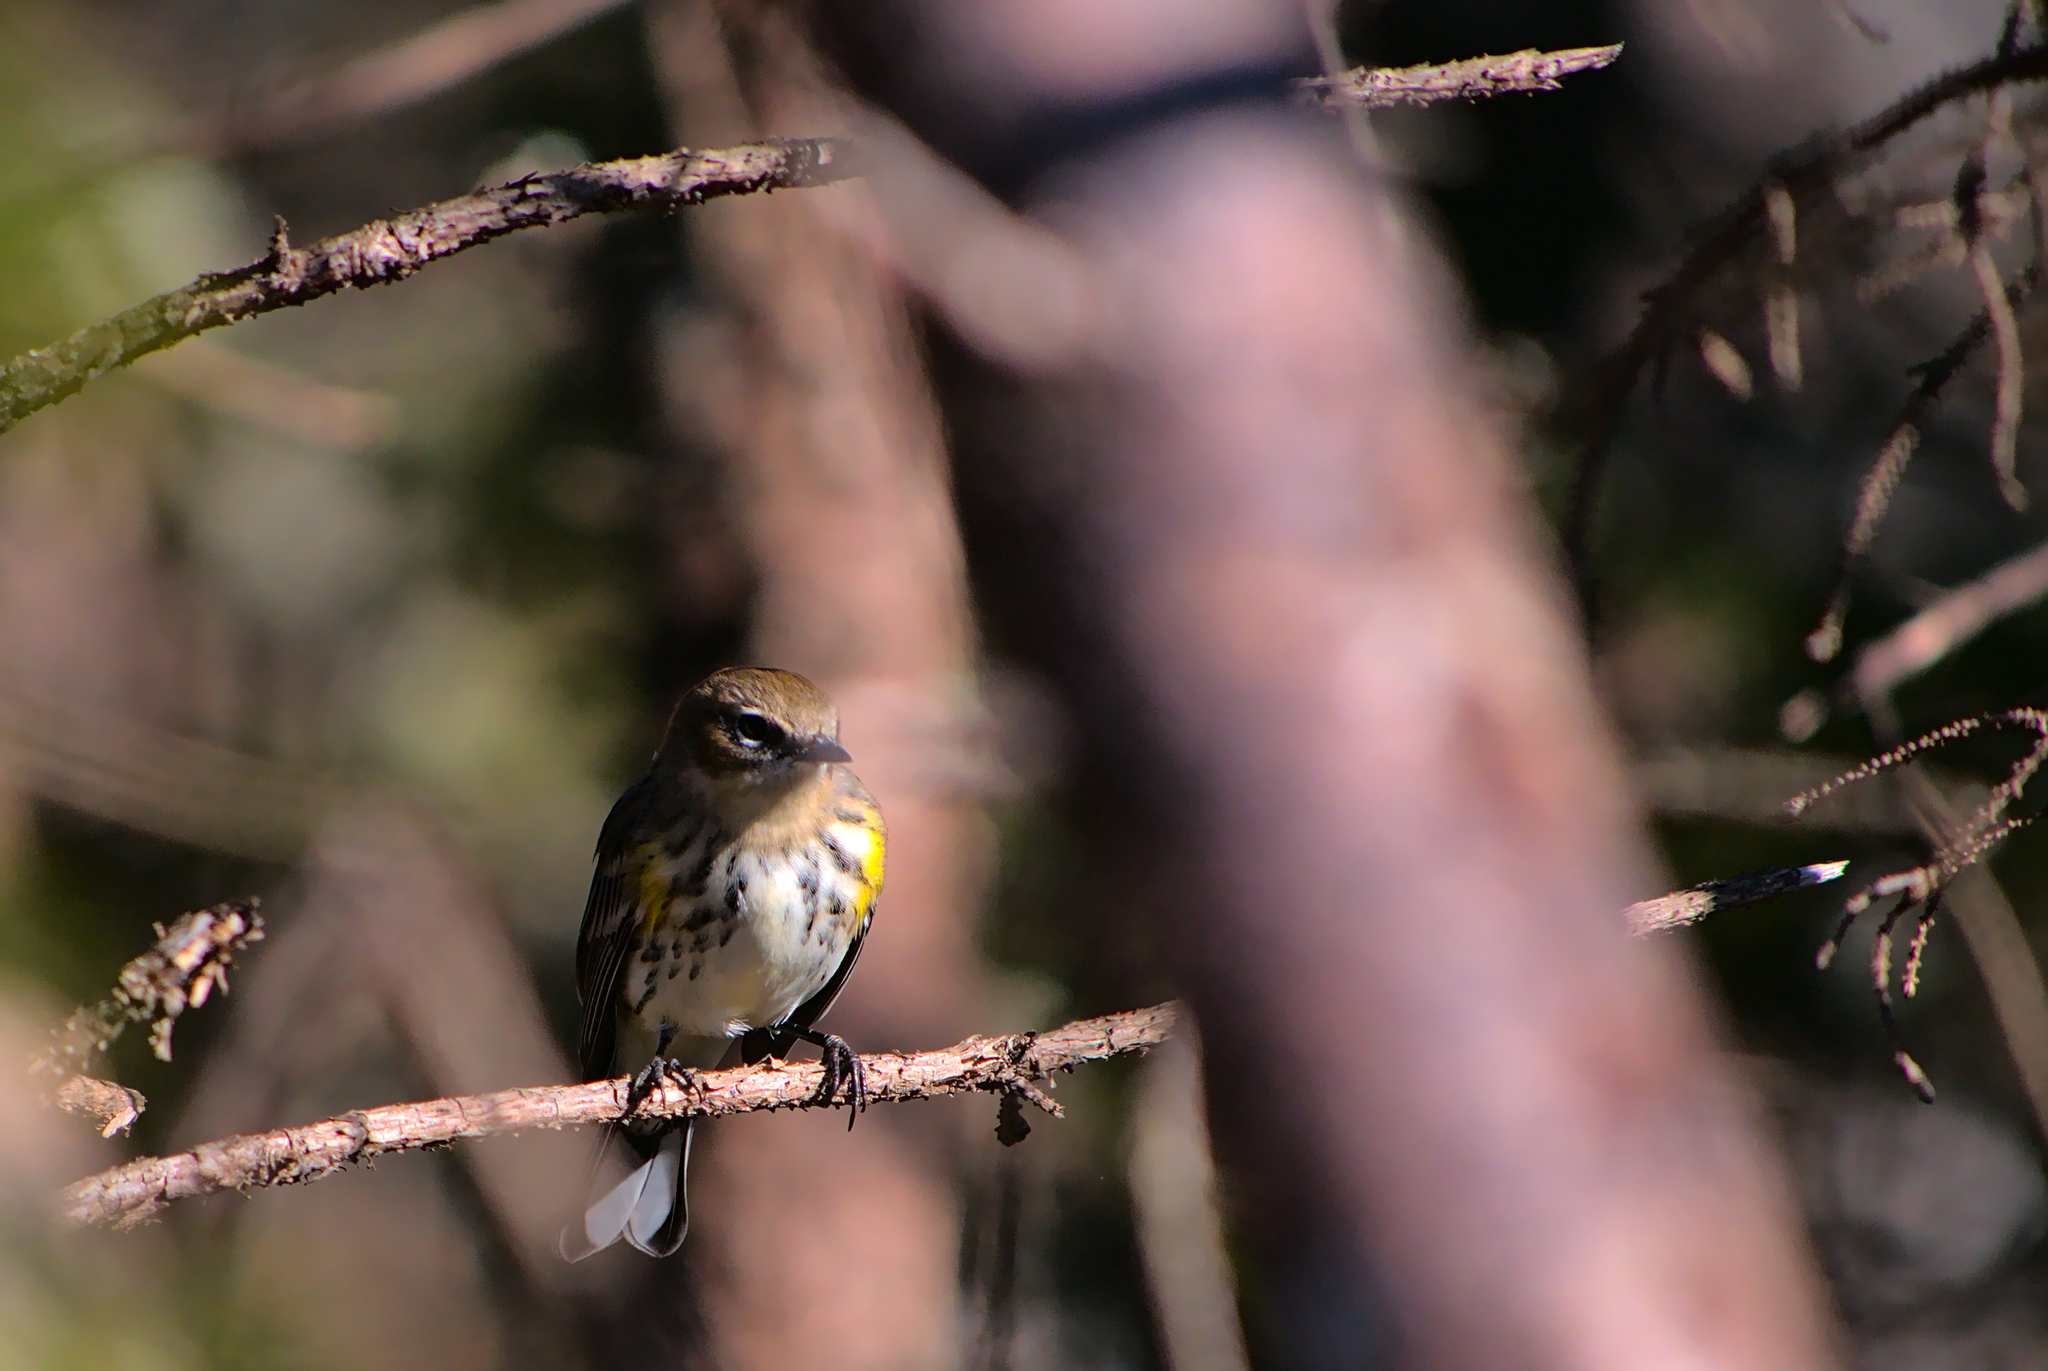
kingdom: Animalia
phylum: Chordata
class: Aves
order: Passeriformes
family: Parulidae
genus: Setophaga
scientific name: Setophaga coronata
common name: Myrtle warbler
